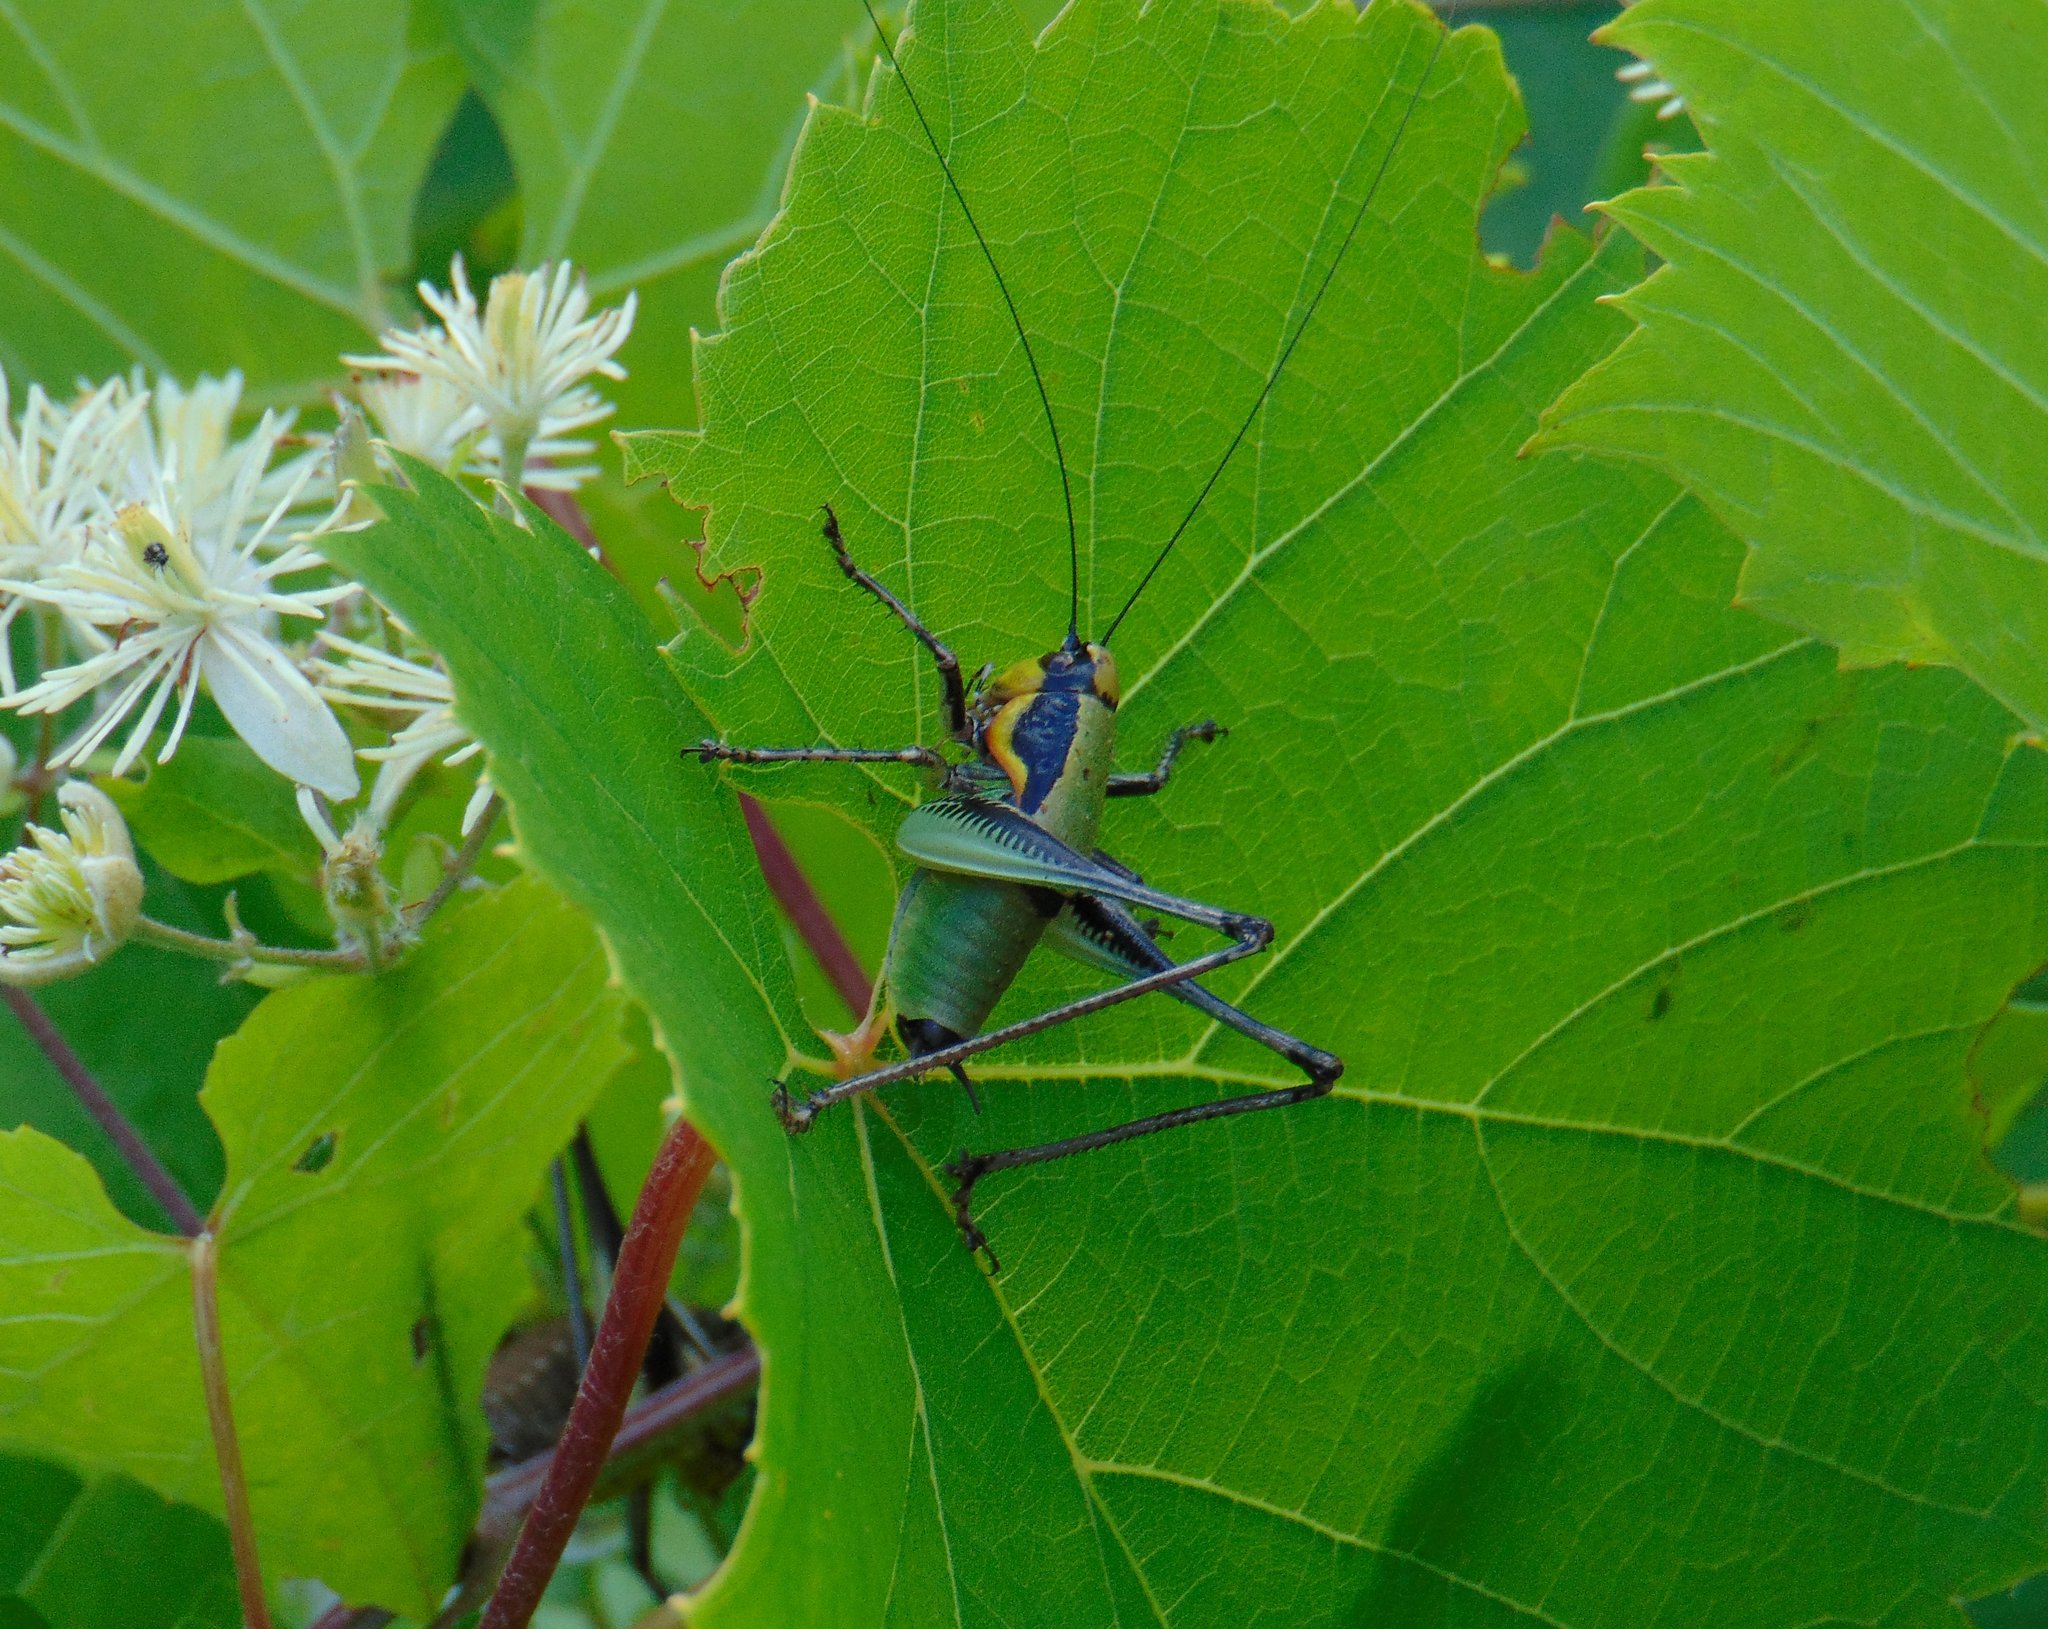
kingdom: Animalia
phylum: Arthropoda
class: Insecta
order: Orthoptera
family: Tettigoniidae
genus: Eupholidoptera
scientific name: Eupholidoptera schmidti
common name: Schmidt's marbled bush-cricket
